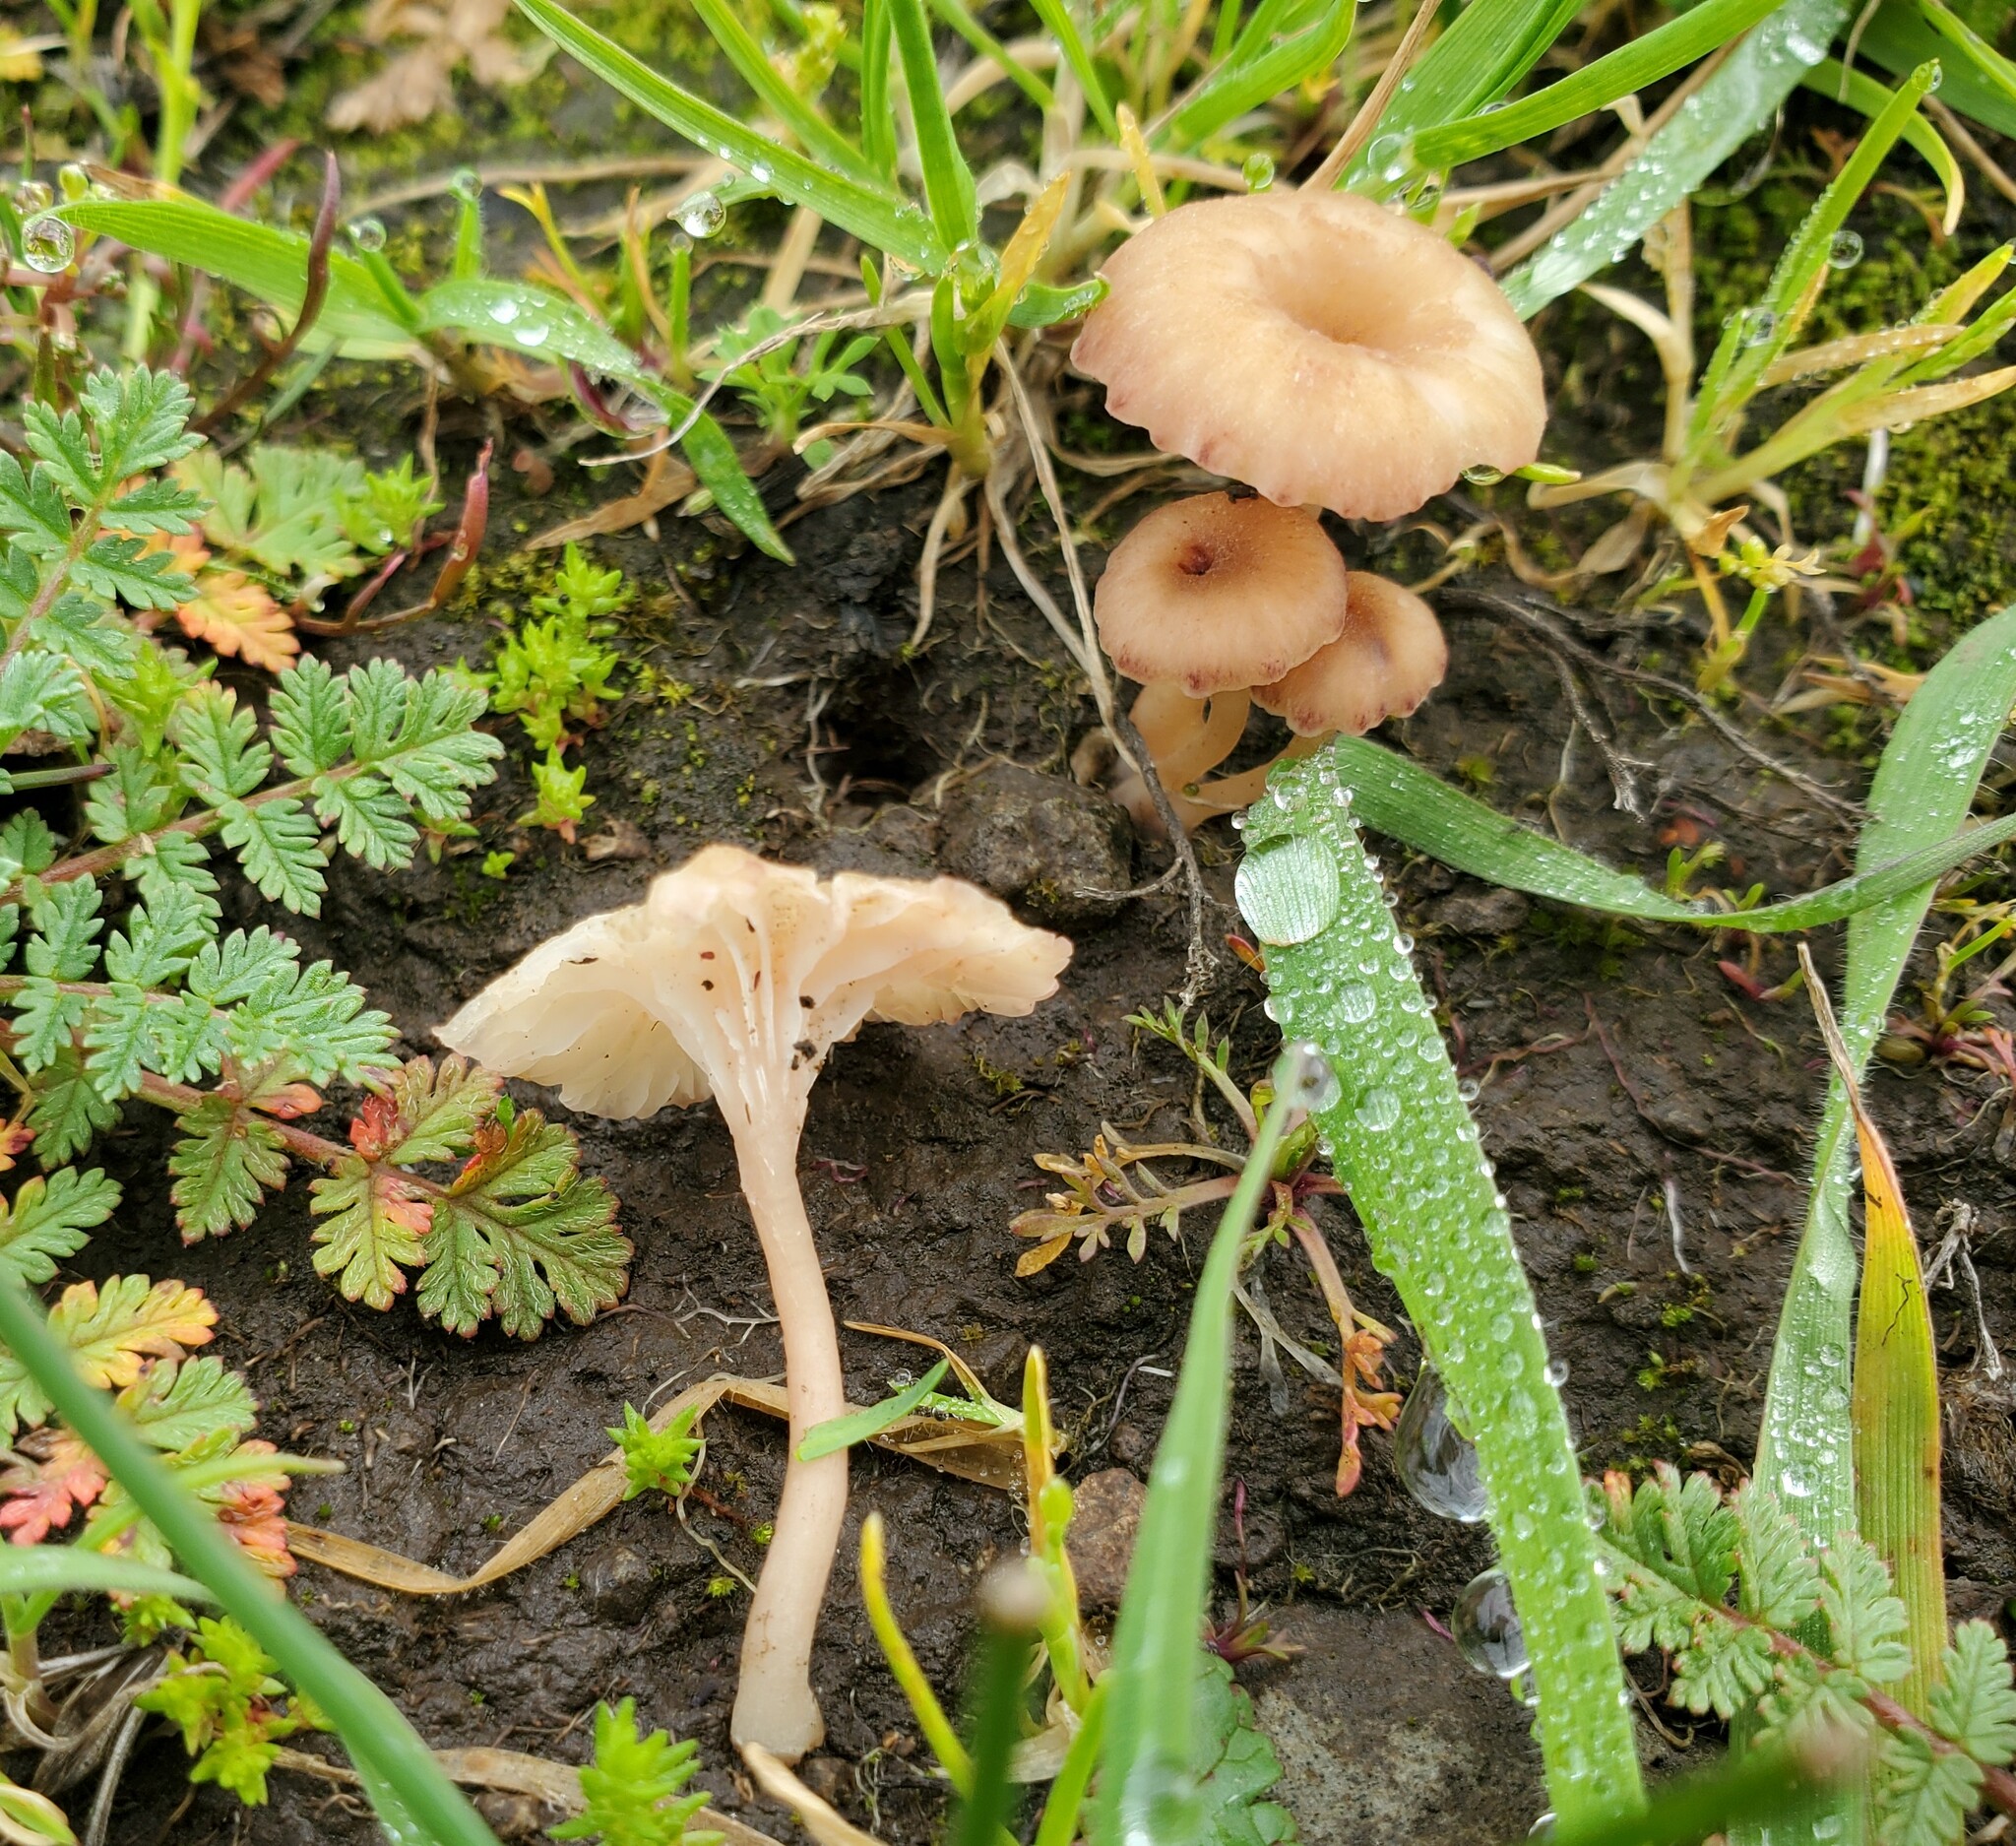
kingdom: Fungi
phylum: Basidiomycota
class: Agaricomycetes
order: Hymenochaetales
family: Rickenellaceae
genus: Contumyces
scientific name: Contumyces rosellus
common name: Rosy navel
